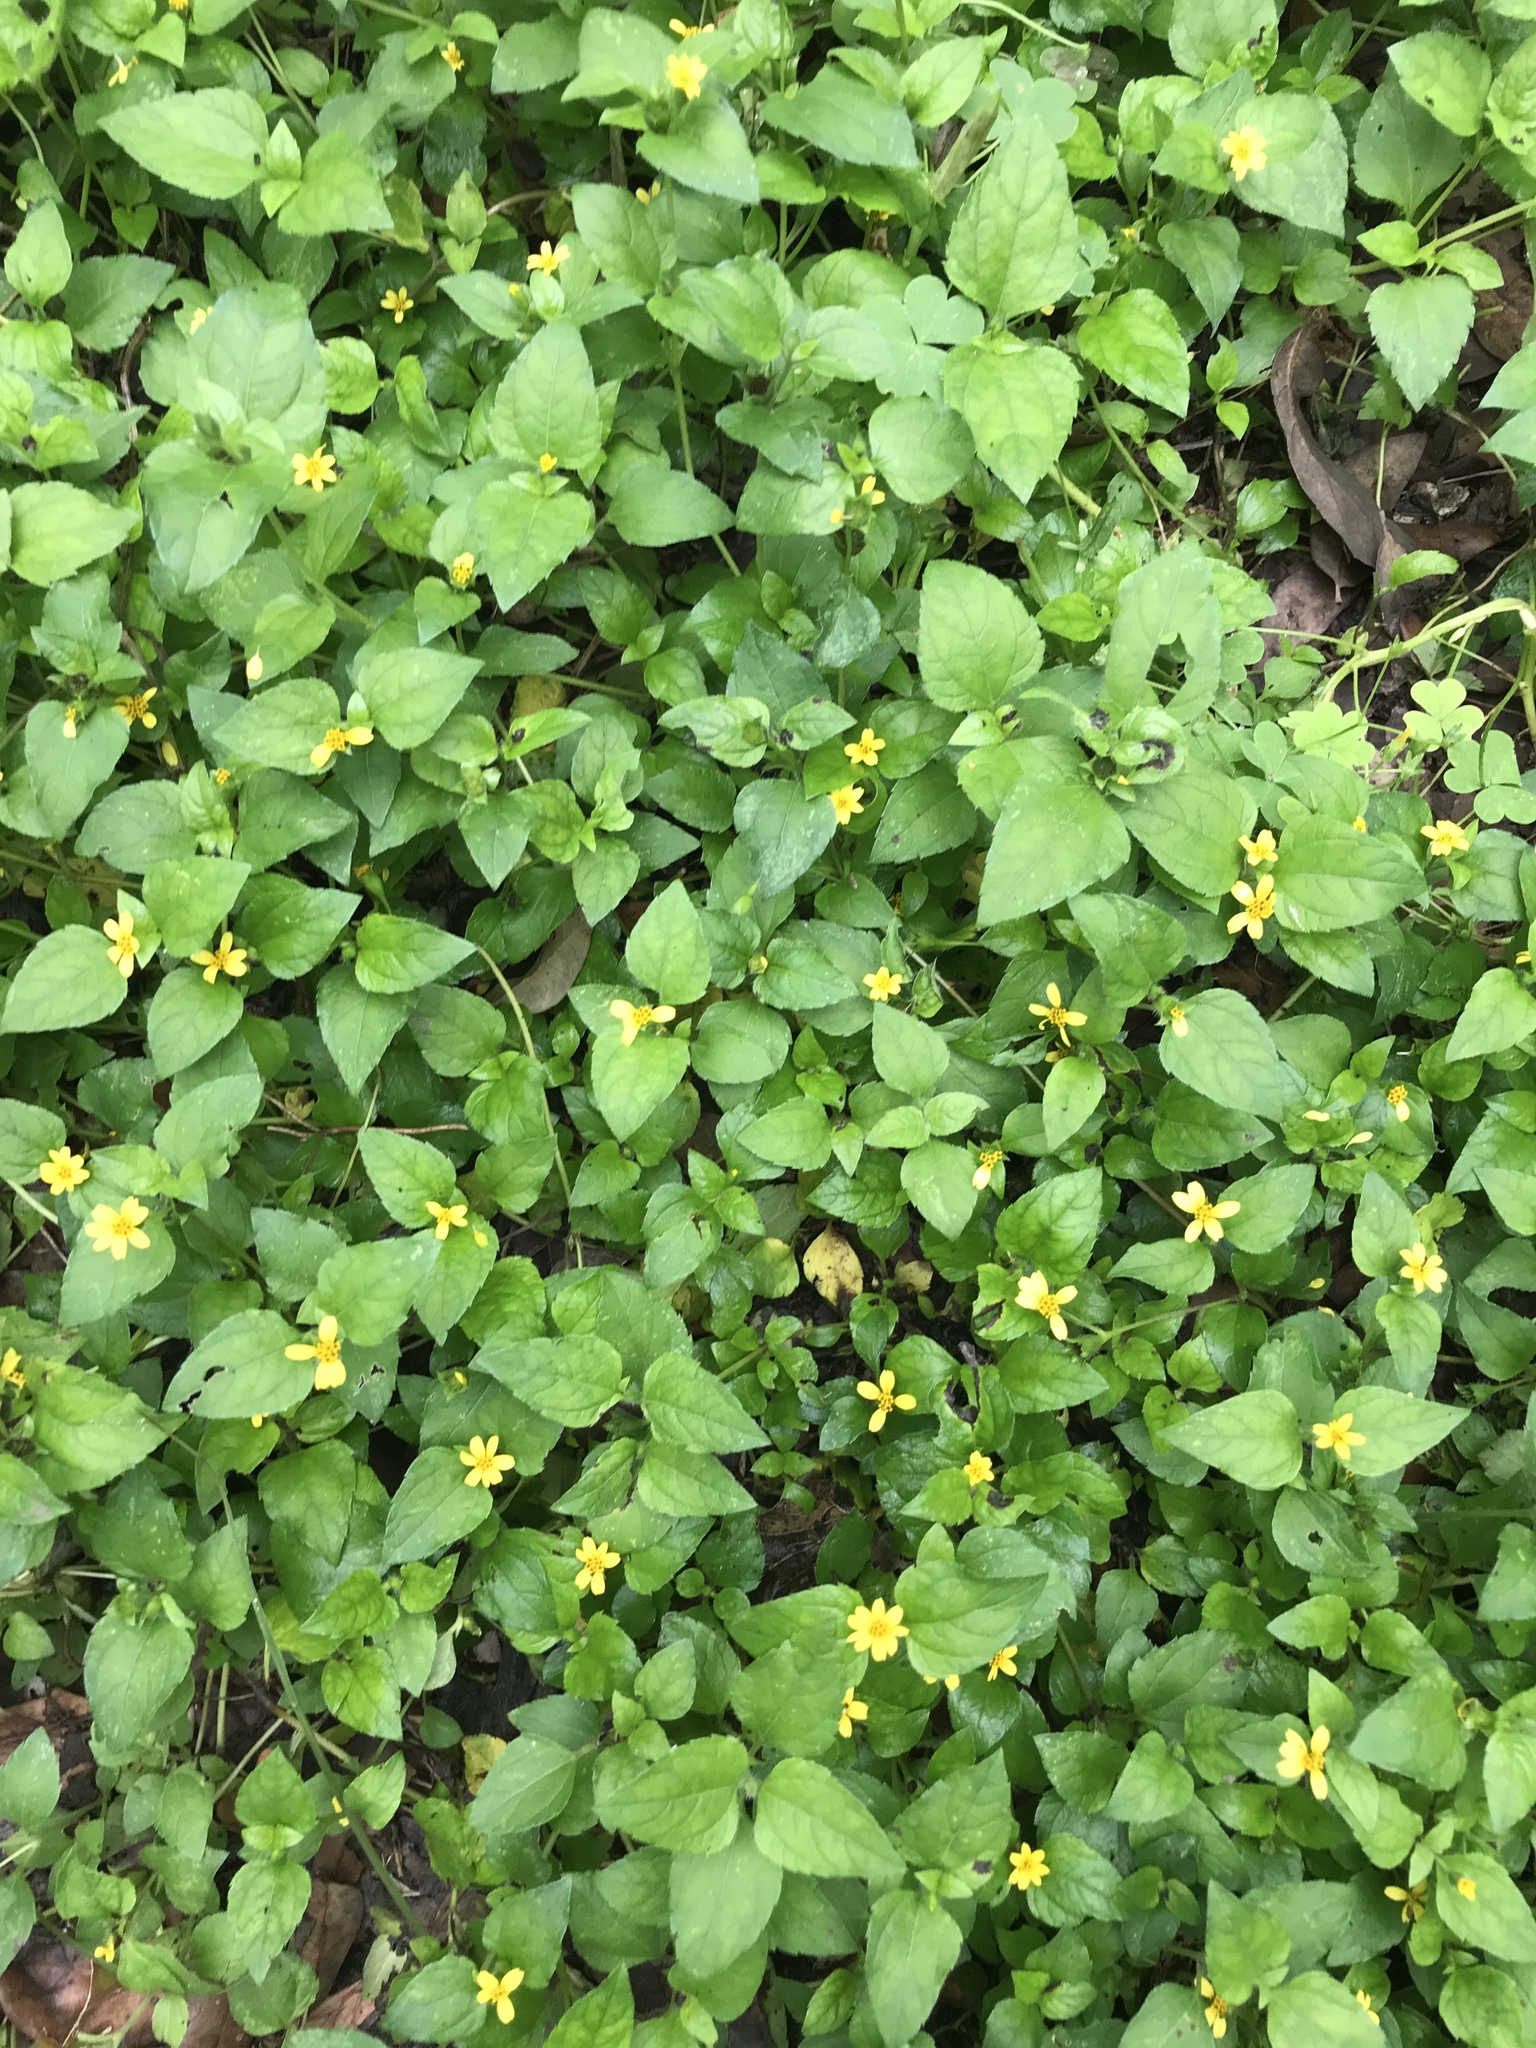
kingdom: Plantae
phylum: Tracheophyta
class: Magnoliopsida
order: Asterales
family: Asteraceae
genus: Calyptocarpus
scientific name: Calyptocarpus vialis
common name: Straggler daisy
